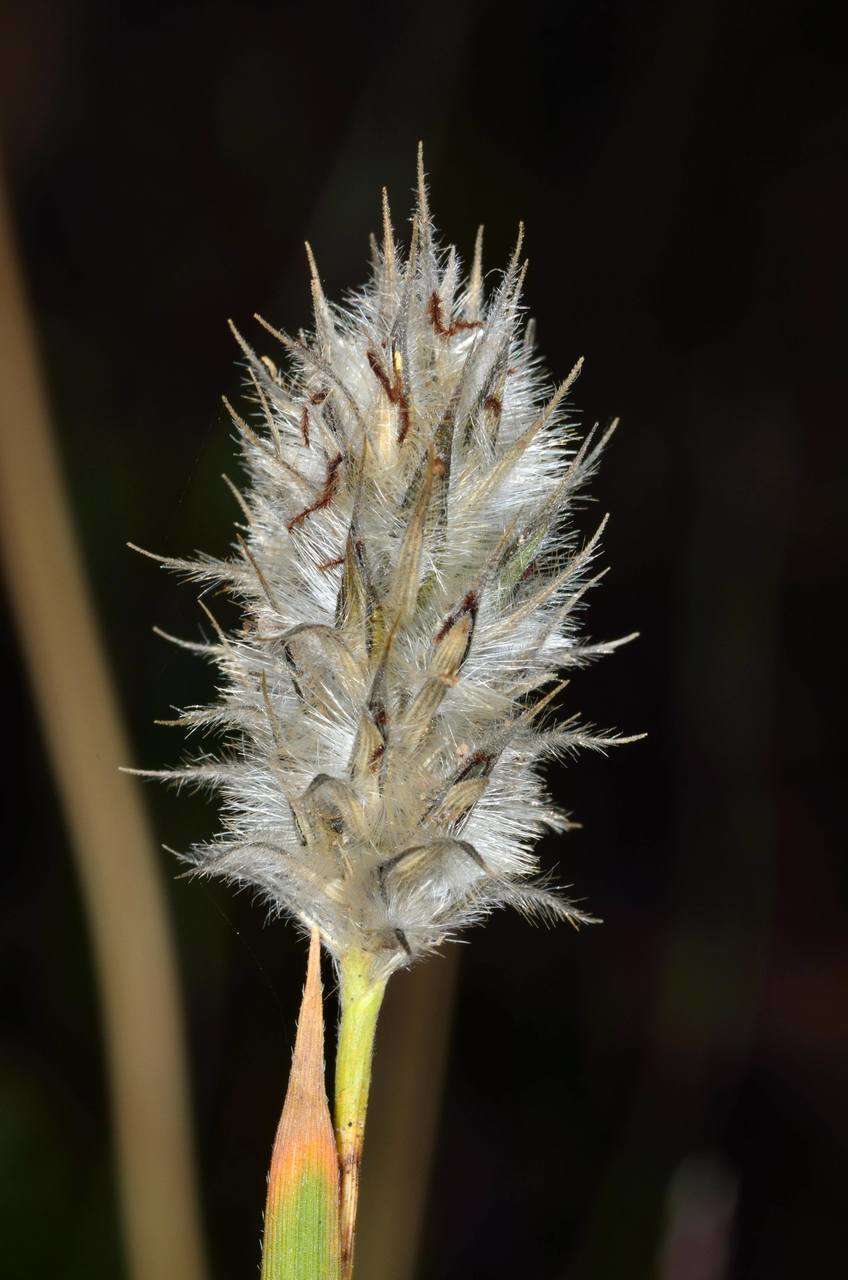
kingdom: Plantae
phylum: Tracheophyta
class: Liliopsida
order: Poales
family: Poaceae
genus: Neurachne
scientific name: Neurachne alopecuroidea
